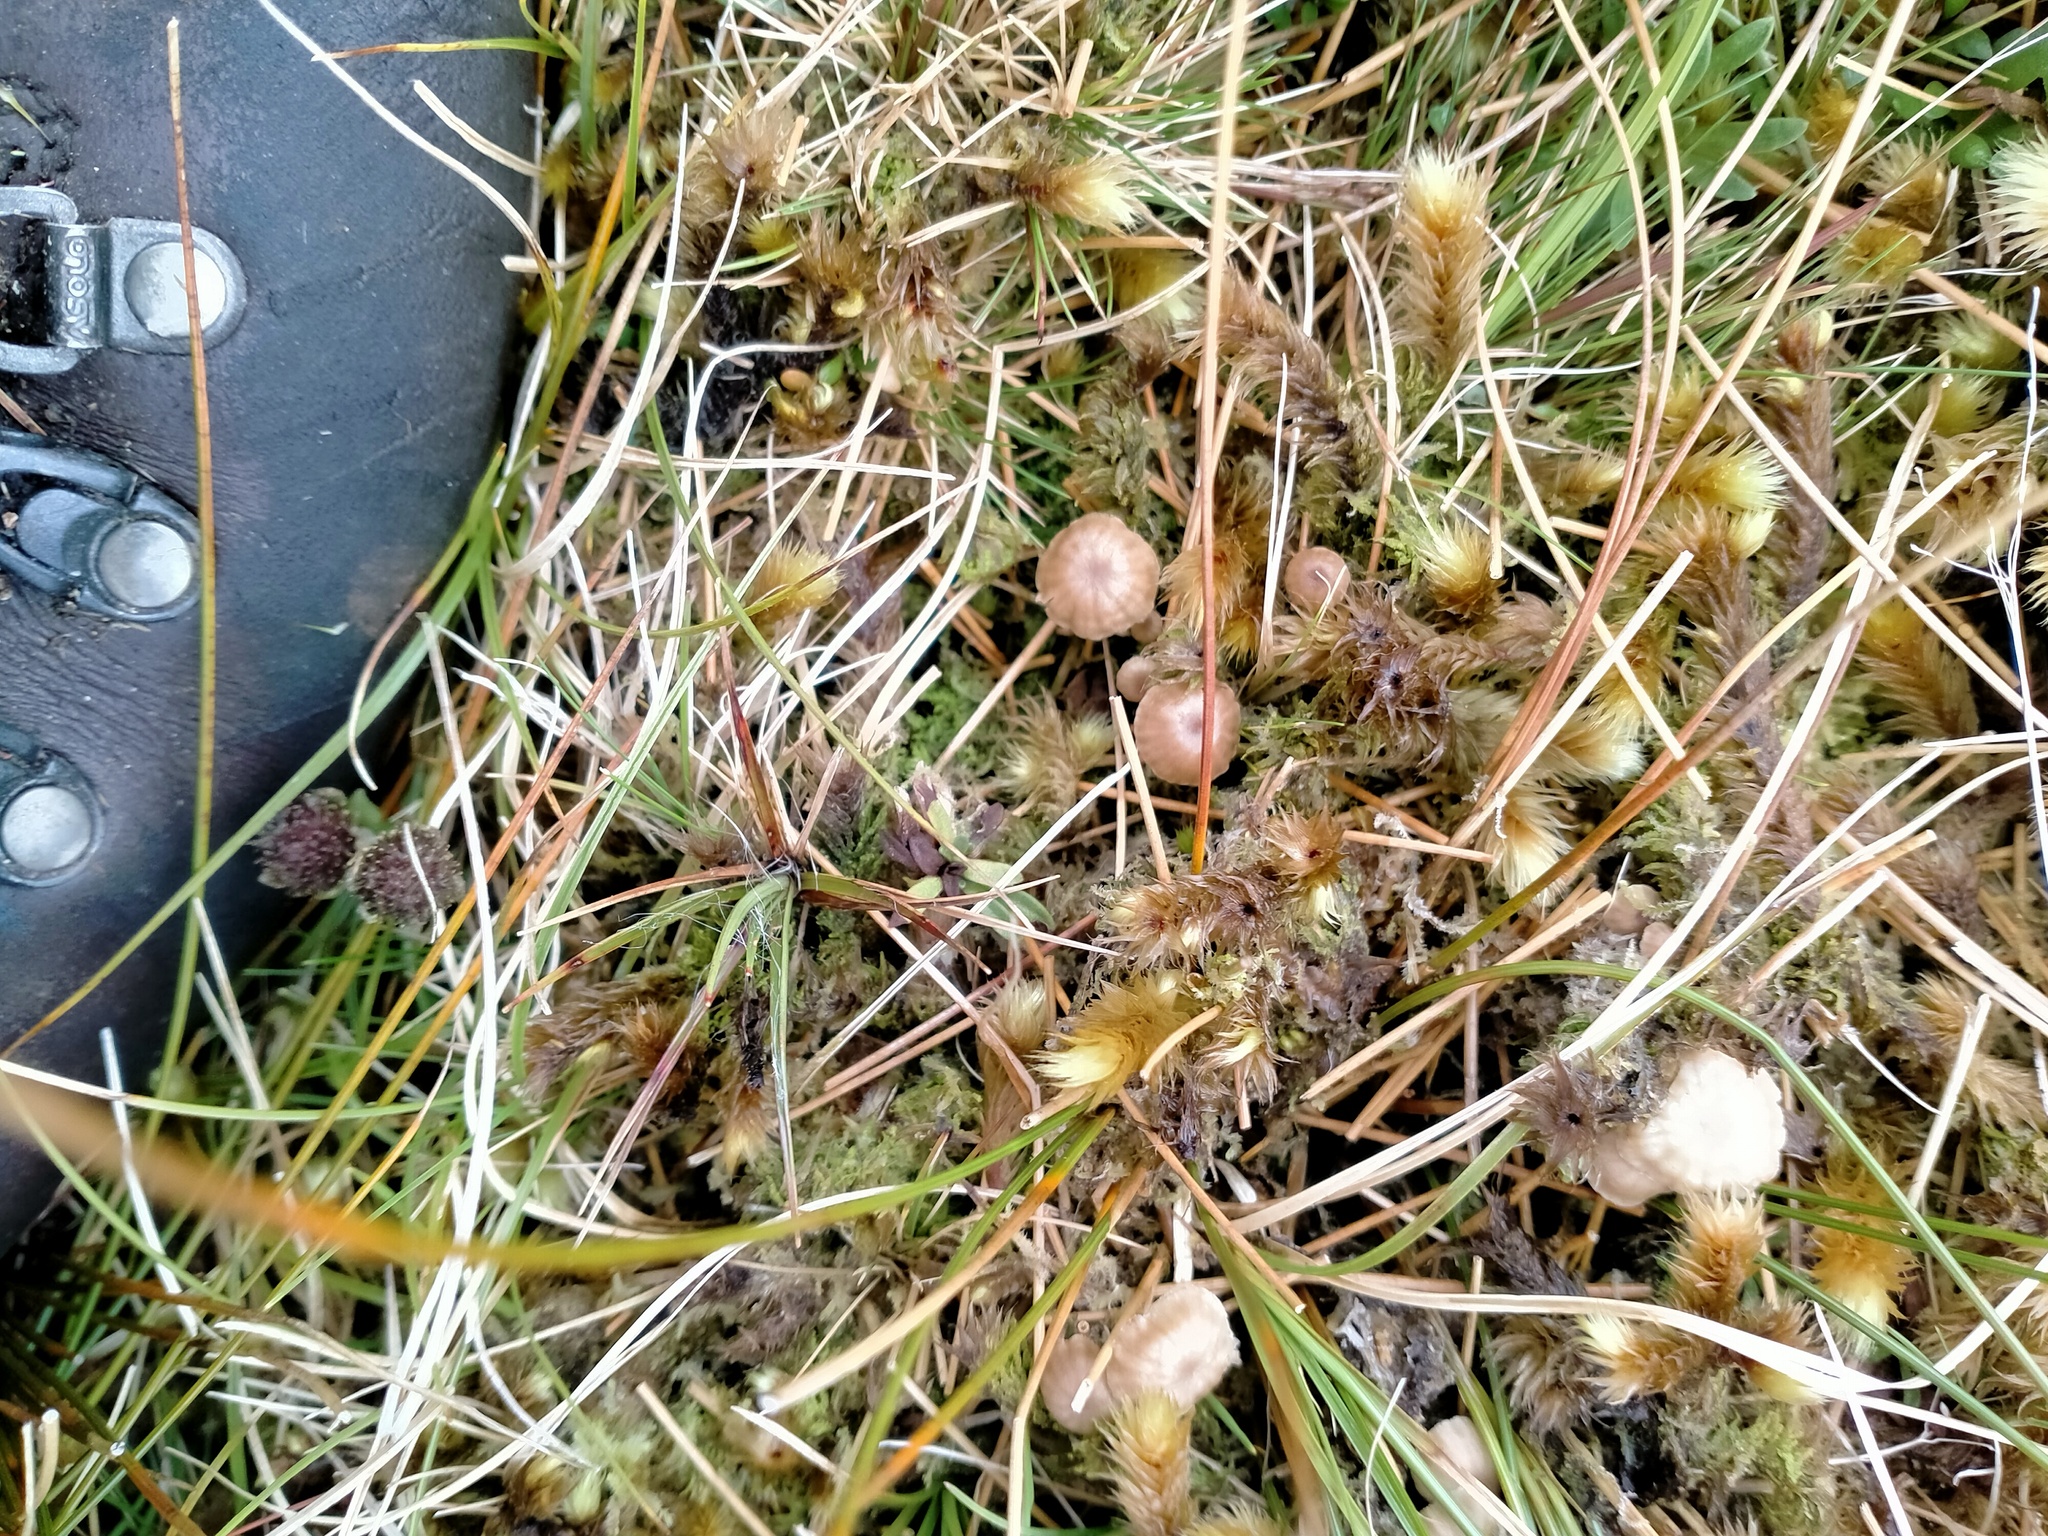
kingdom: Fungi
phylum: Basidiomycota
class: Agaricomycetes
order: Agaricales
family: Tricholomataceae
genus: Omphalina
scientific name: Omphalina
